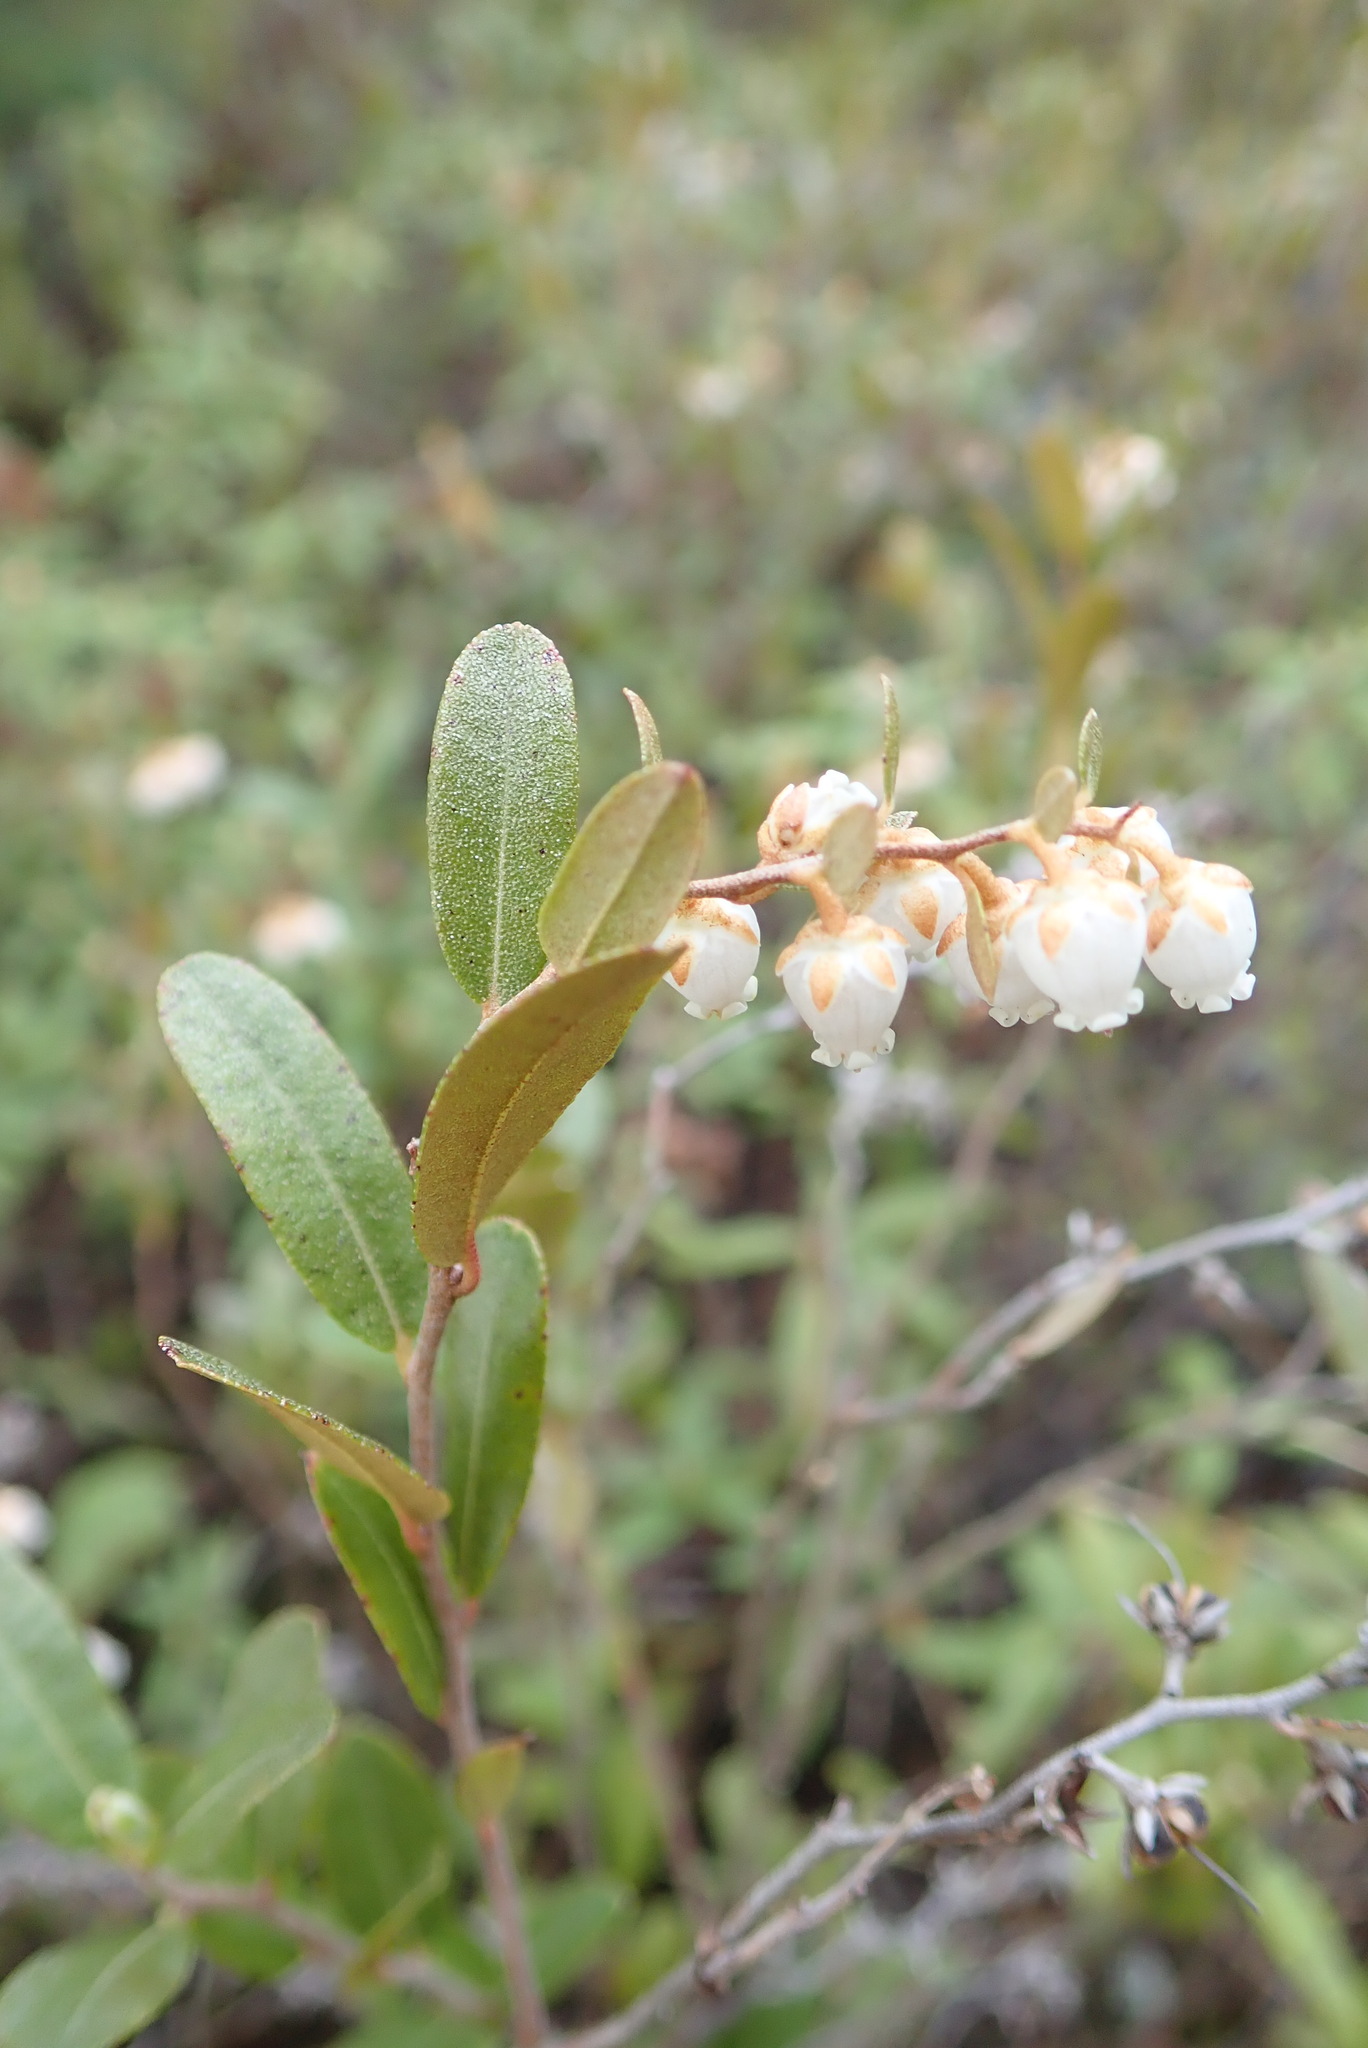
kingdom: Plantae
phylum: Tracheophyta
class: Magnoliopsida
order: Ericales
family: Ericaceae
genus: Chamaedaphne
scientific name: Chamaedaphne calyculata
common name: Leatherleaf
